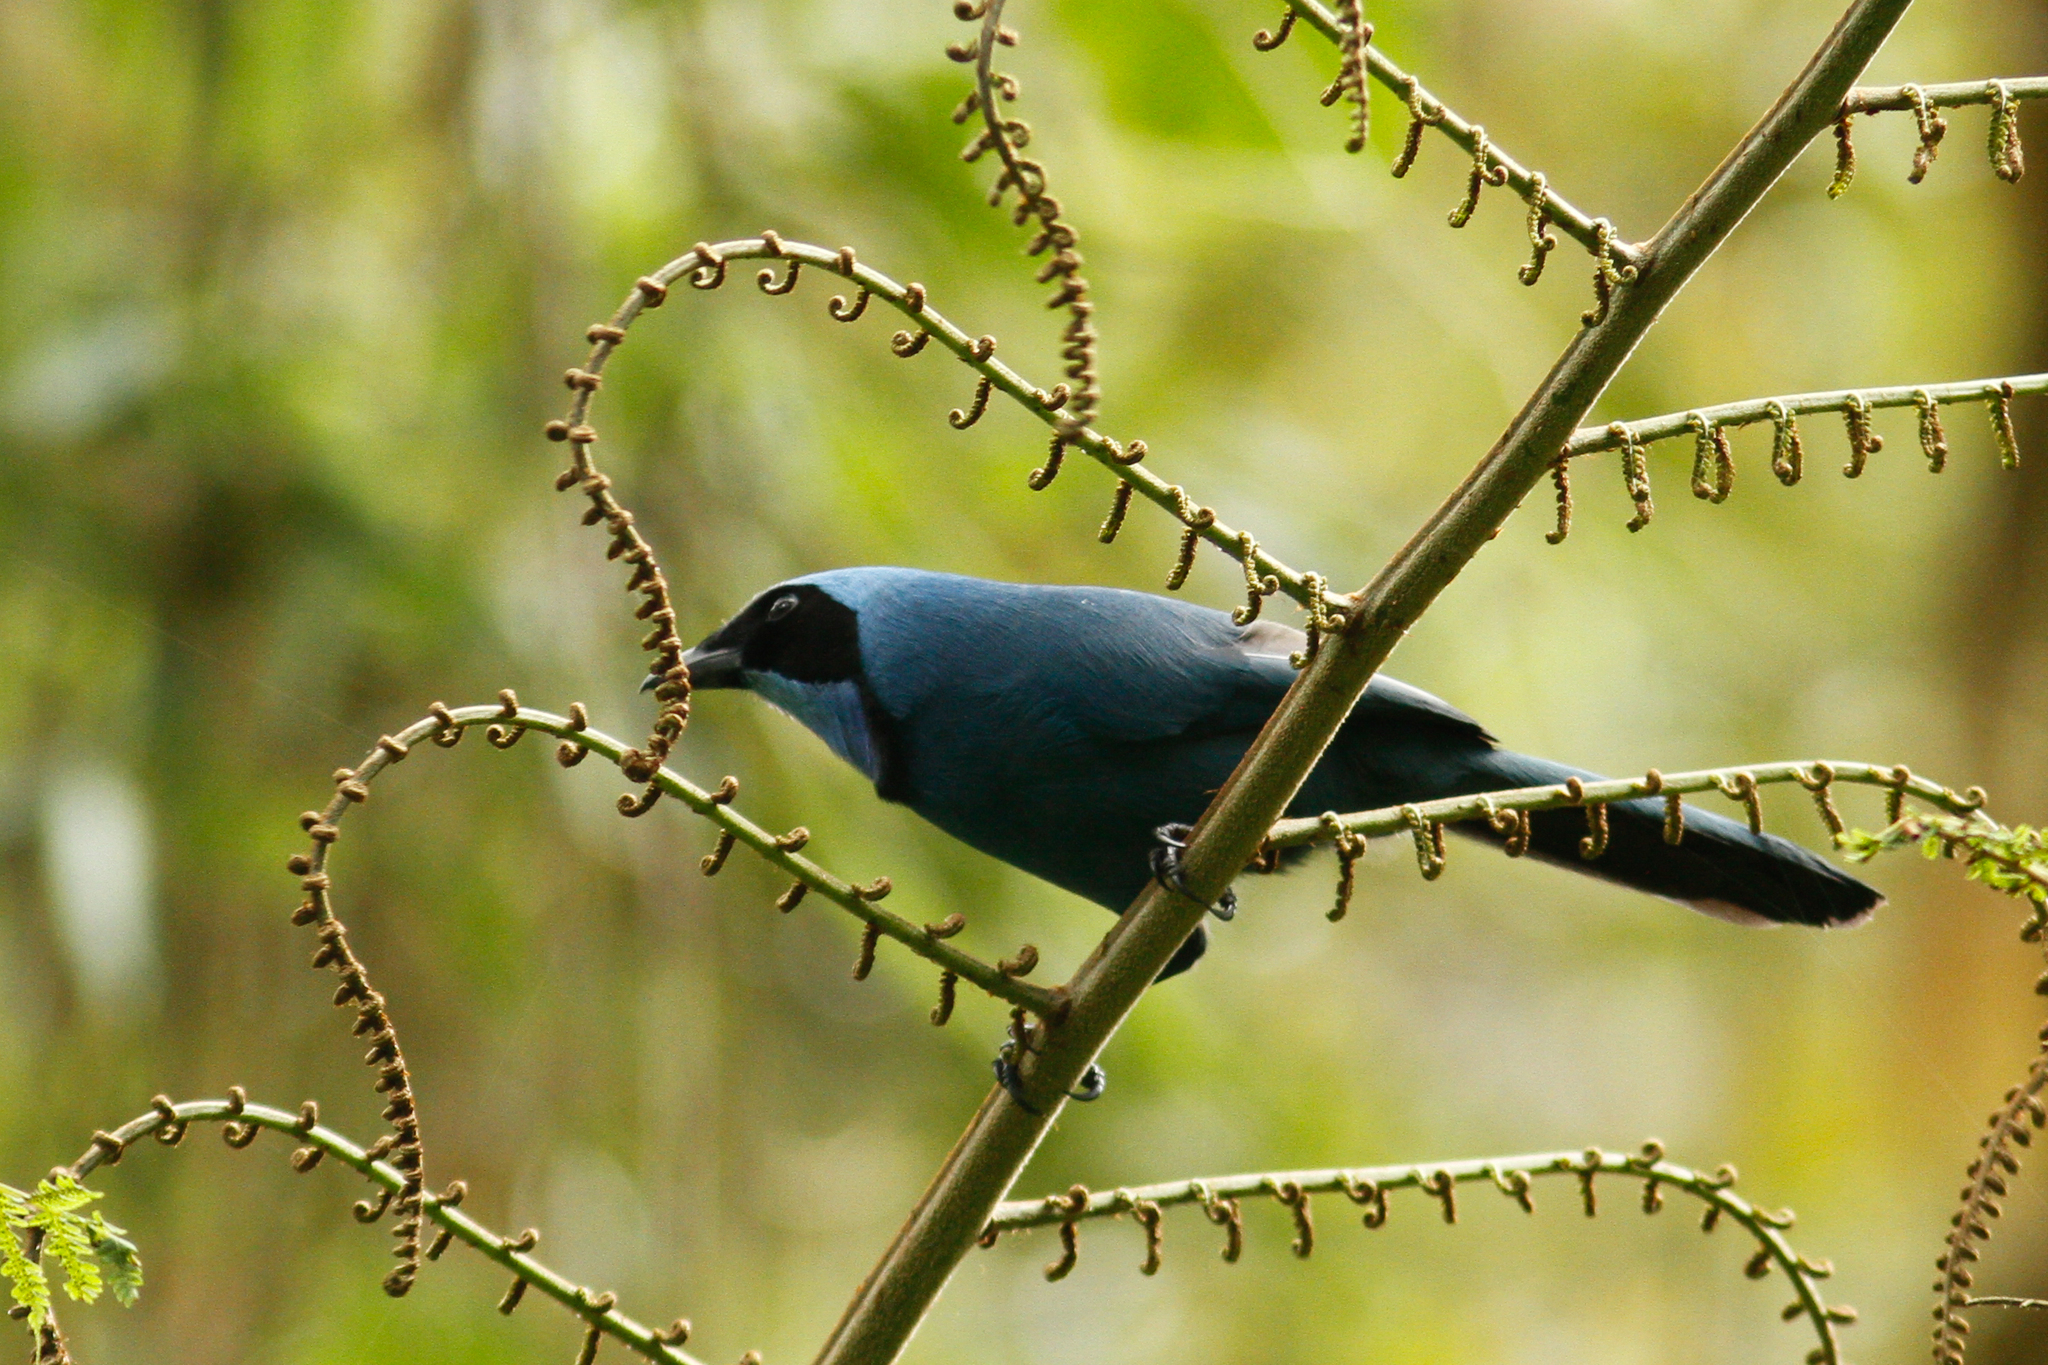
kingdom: Animalia
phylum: Chordata
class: Aves
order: Passeriformes
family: Corvidae
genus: Cyanolyca
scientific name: Cyanolyca turcosa
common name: Turquoise jay
